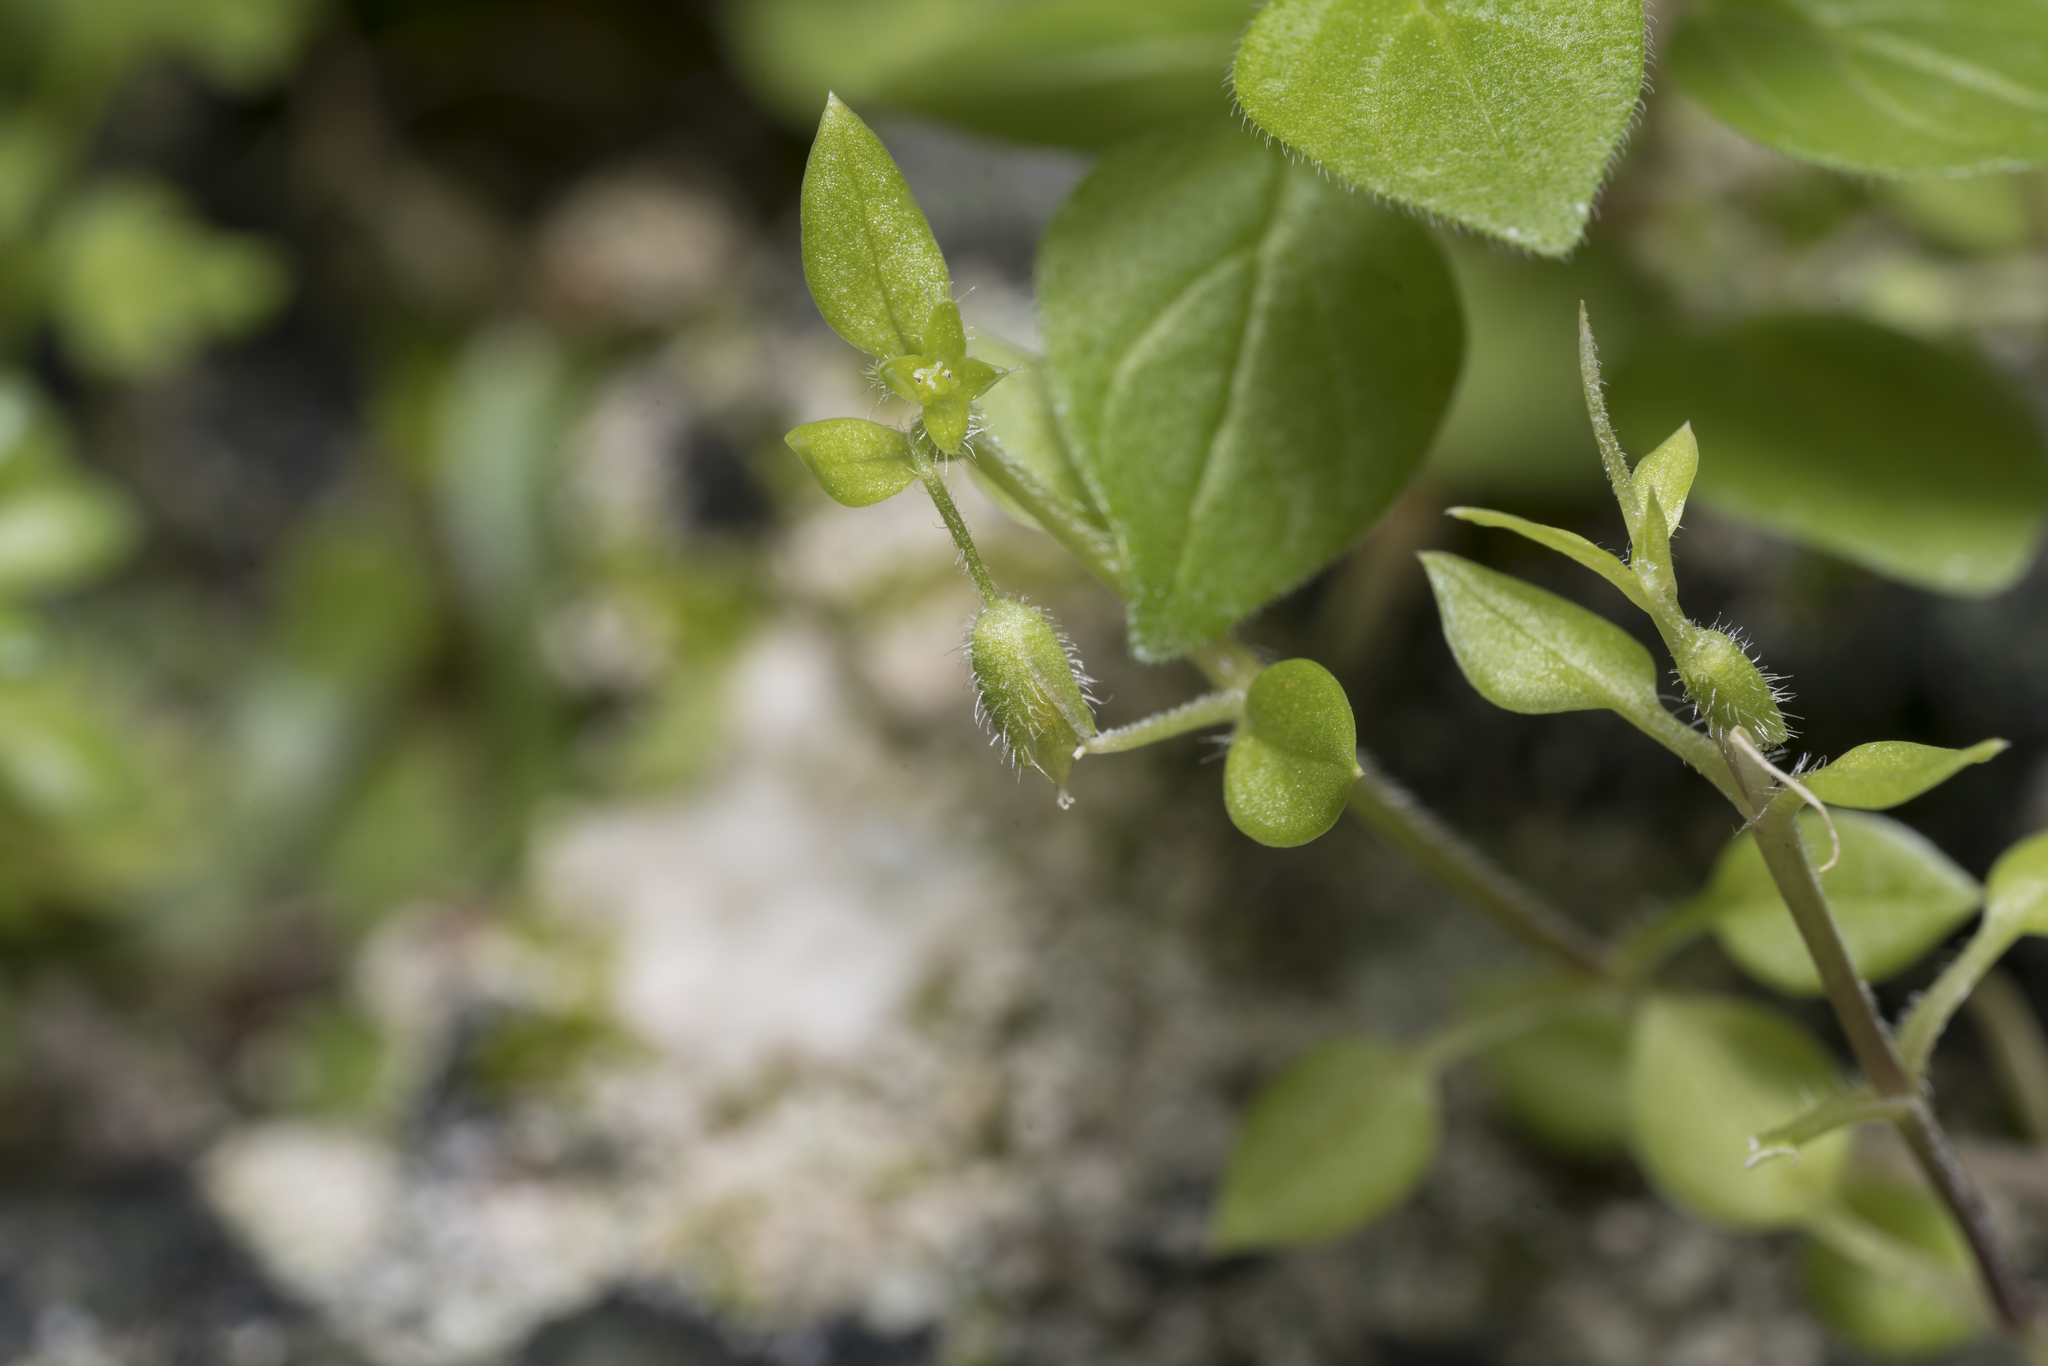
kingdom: Plantae
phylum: Tracheophyta
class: Magnoliopsida
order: Caryophyllales
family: Caryophyllaceae
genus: Stellaria
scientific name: Stellaria apetala
